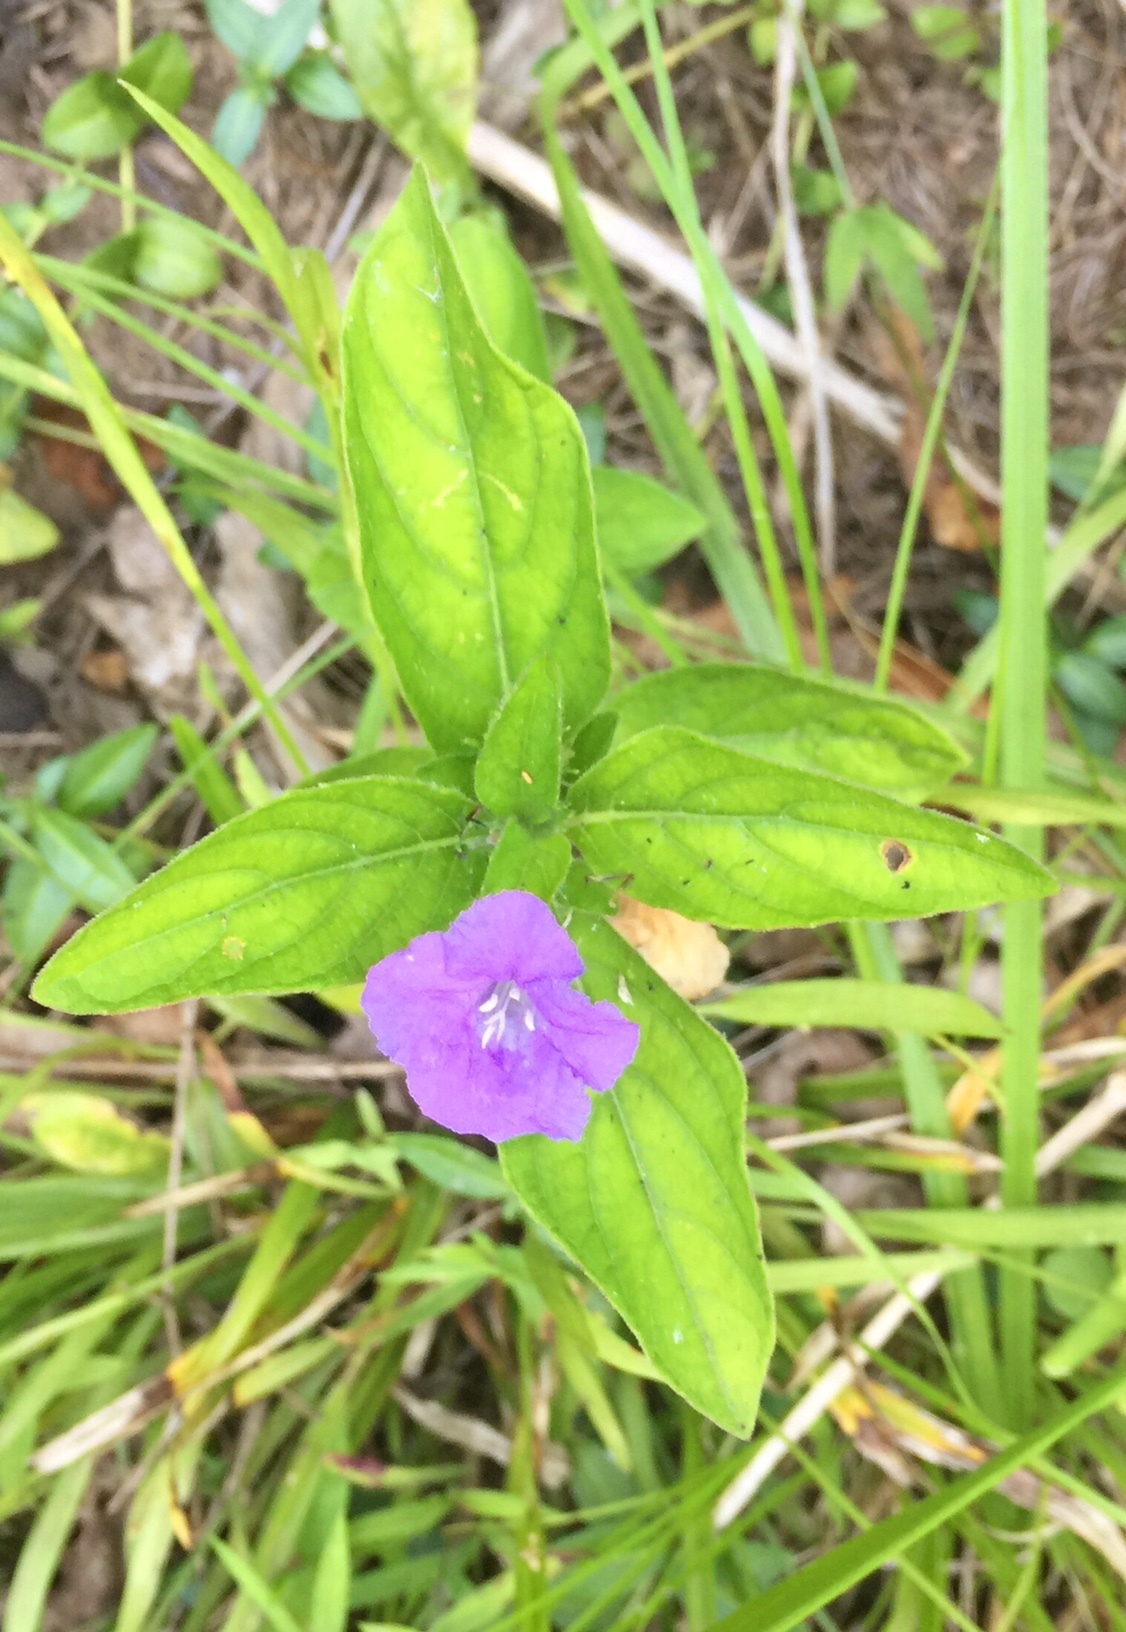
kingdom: Plantae
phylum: Tracheophyta
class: Magnoliopsida
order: Lamiales
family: Acanthaceae
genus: Ruellia
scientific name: Ruellia caroliniensis
